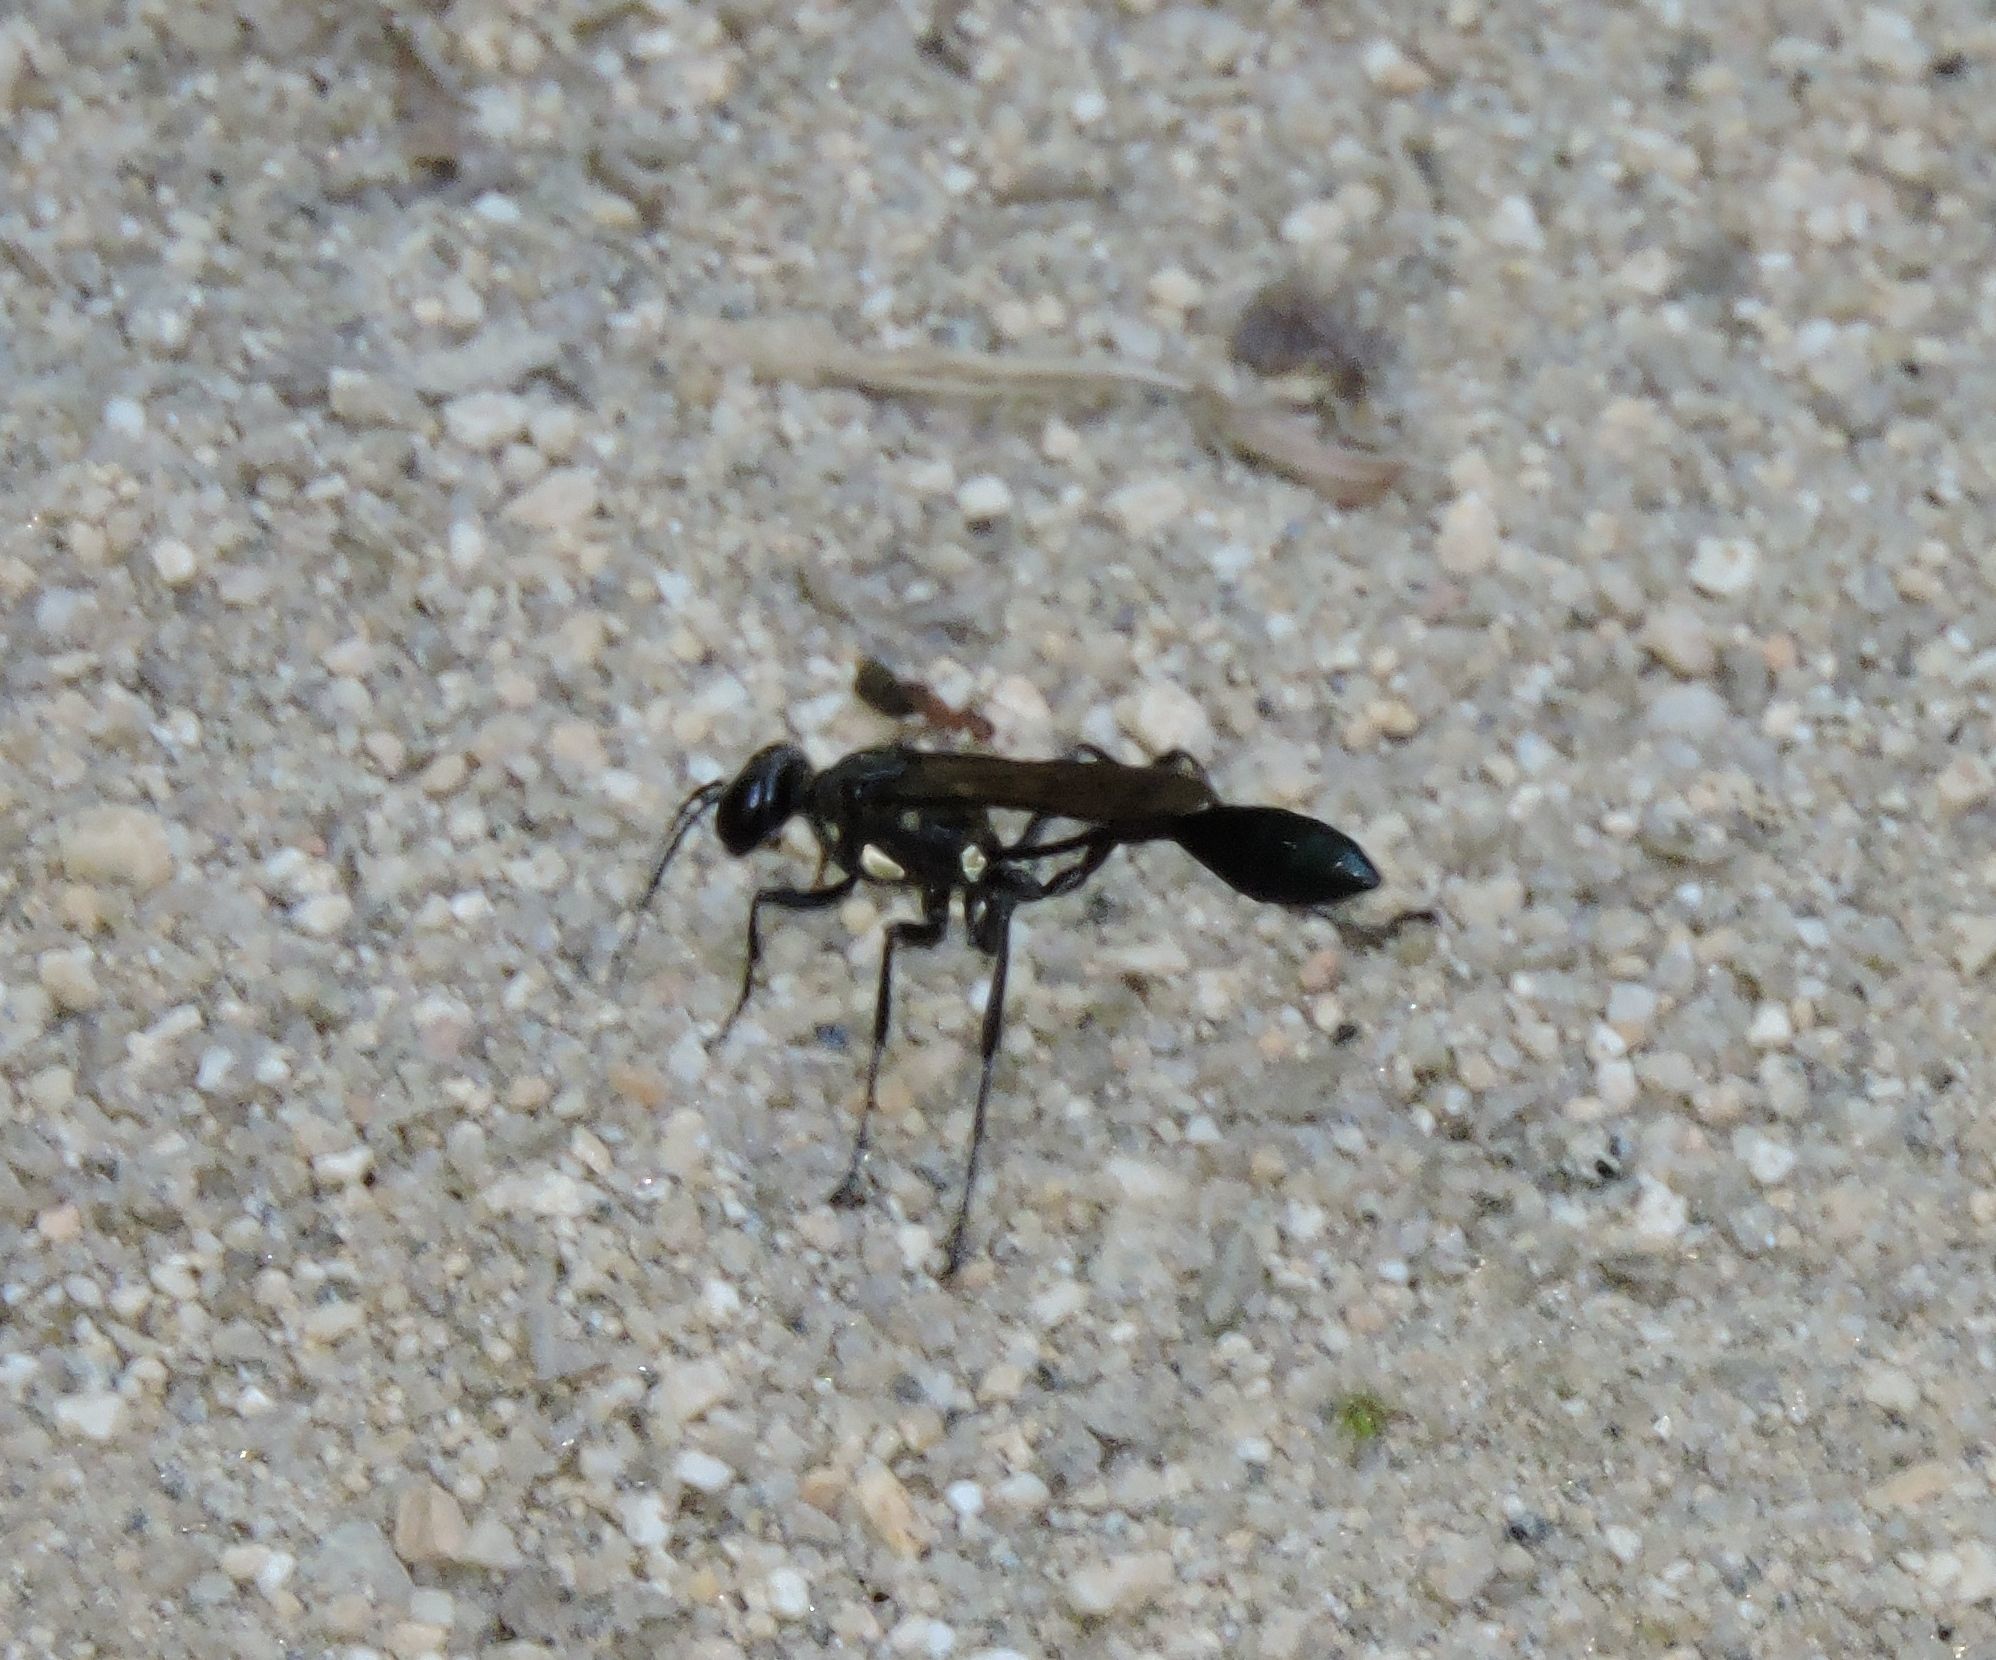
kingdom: Animalia
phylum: Arthropoda
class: Insecta
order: Hymenoptera
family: Sphecidae
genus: Eremnophila
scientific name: Eremnophila aureonotata
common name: Gold-marked thread-waisted wasp
